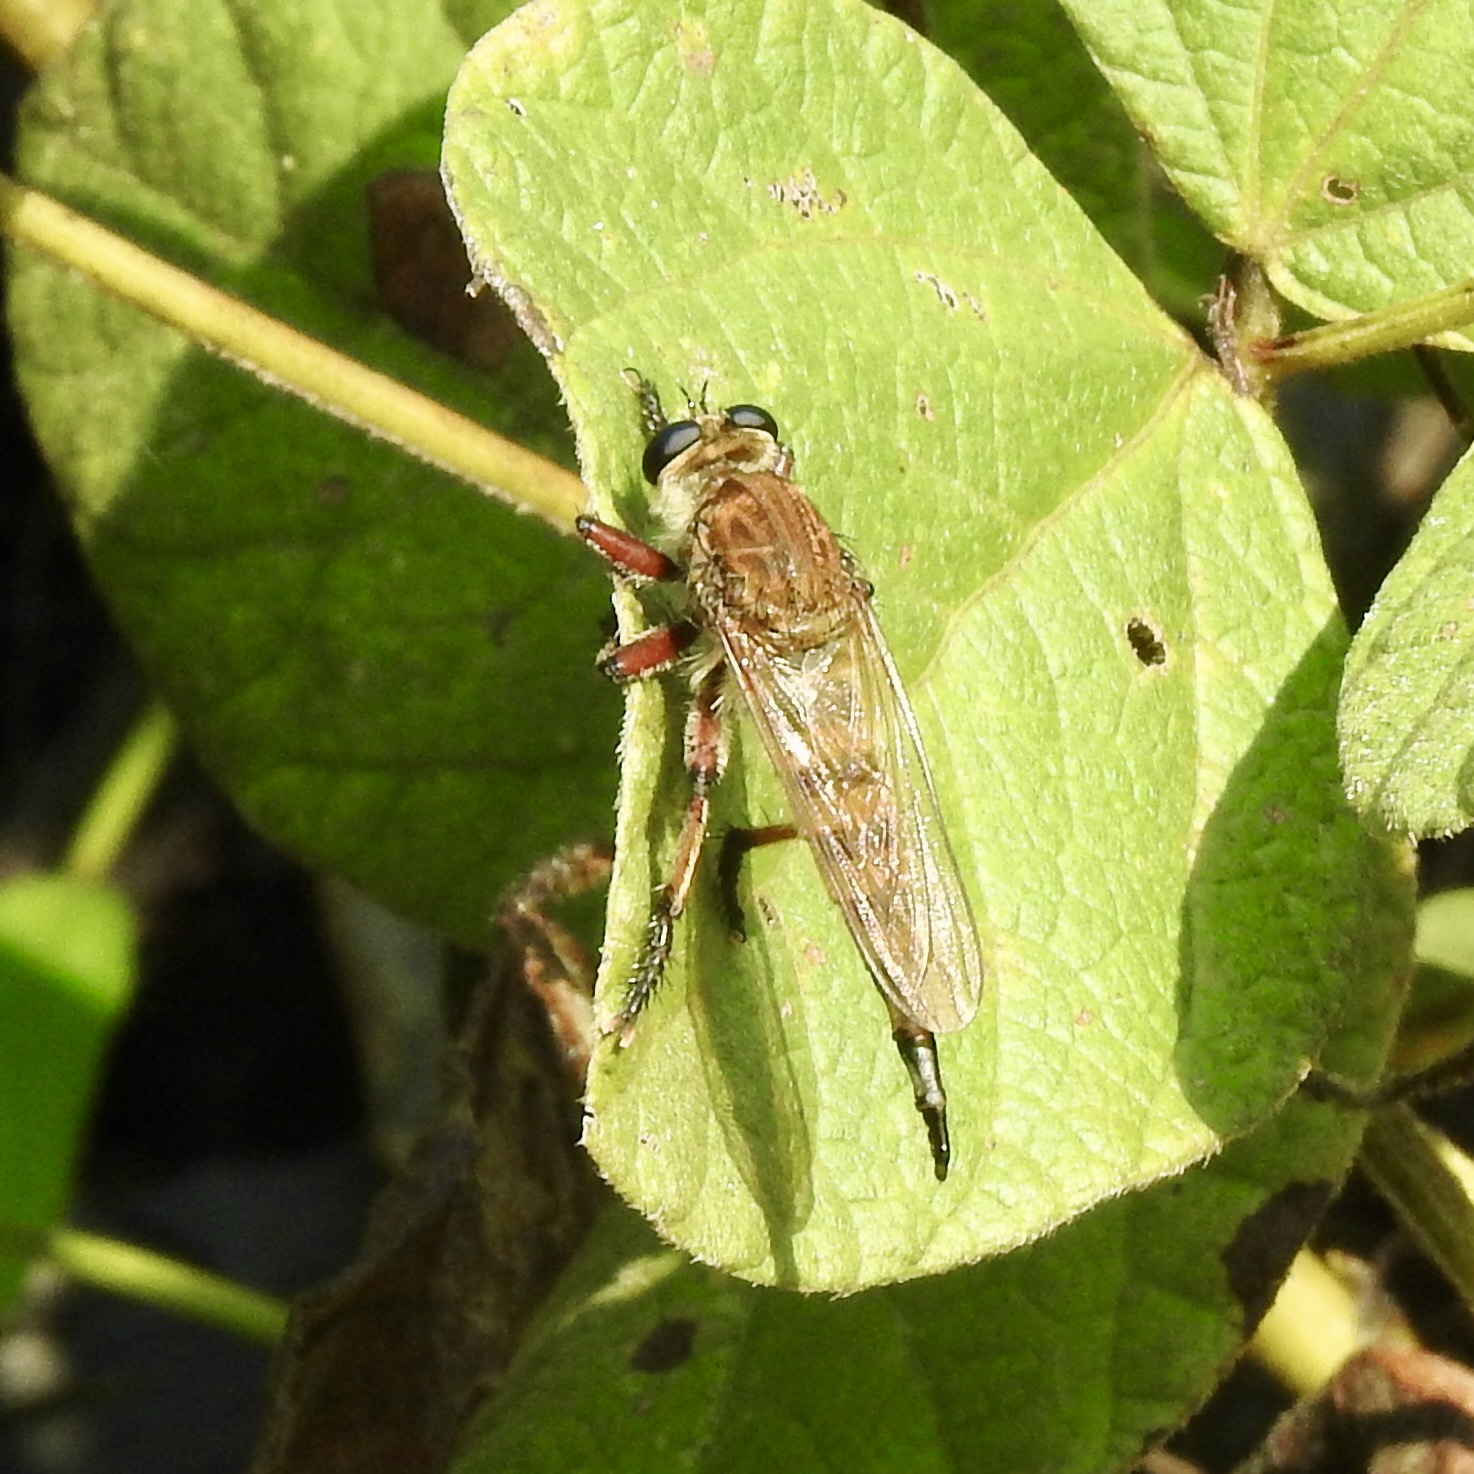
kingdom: Animalia
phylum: Arthropoda
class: Insecta
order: Diptera
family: Asilidae
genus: Promachus
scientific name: Promachus hinei
